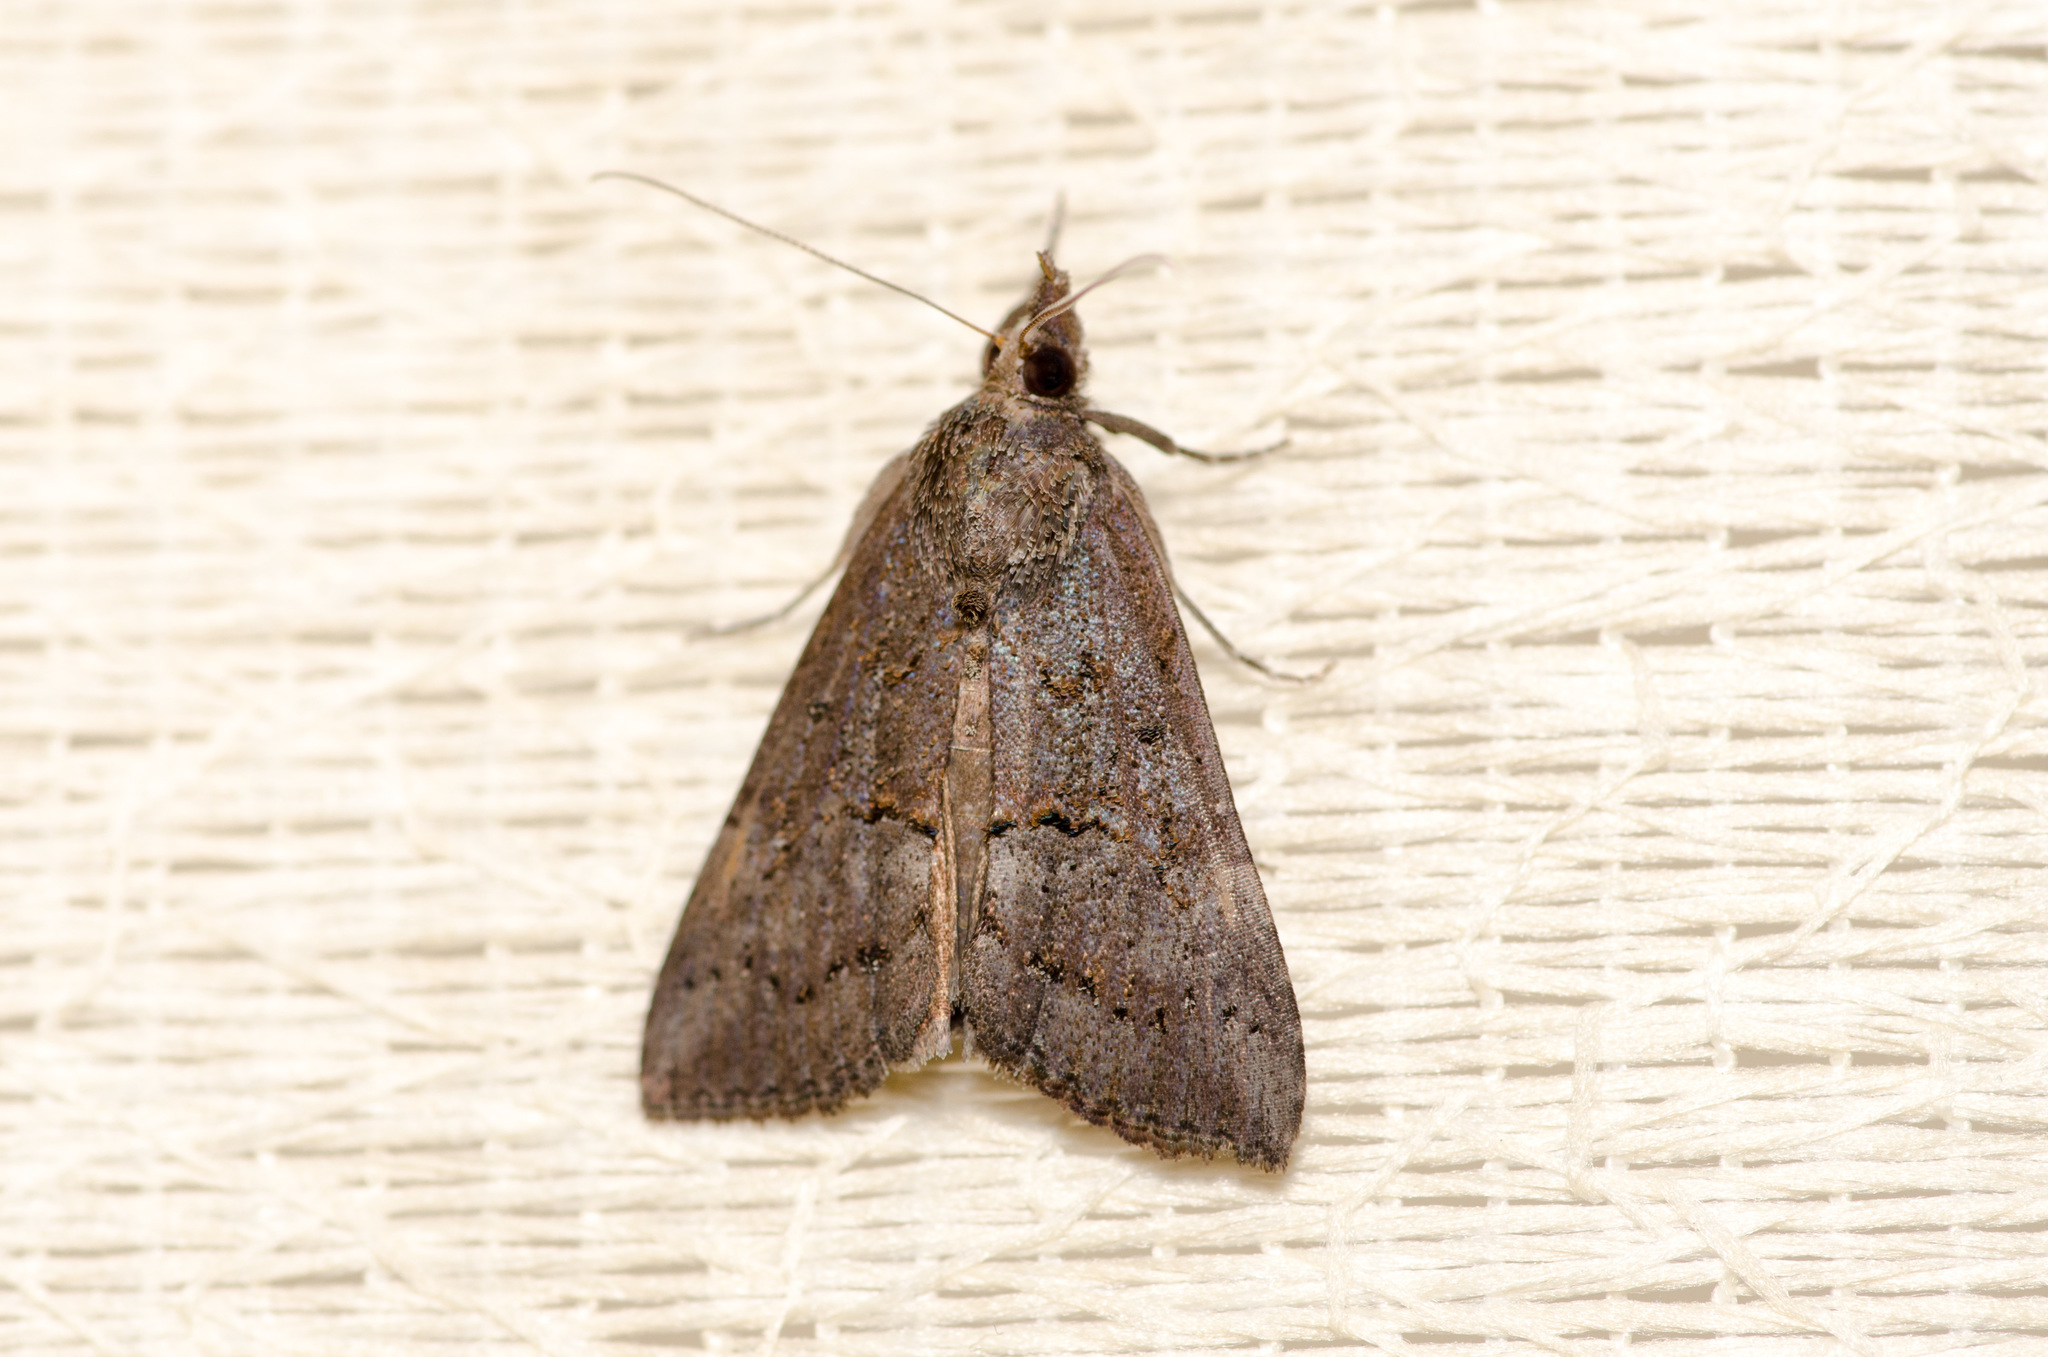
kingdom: Animalia
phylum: Arthropoda
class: Insecta
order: Lepidoptera
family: Erebidae
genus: Hypena
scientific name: Hypena scabra
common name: Green cloverworm
